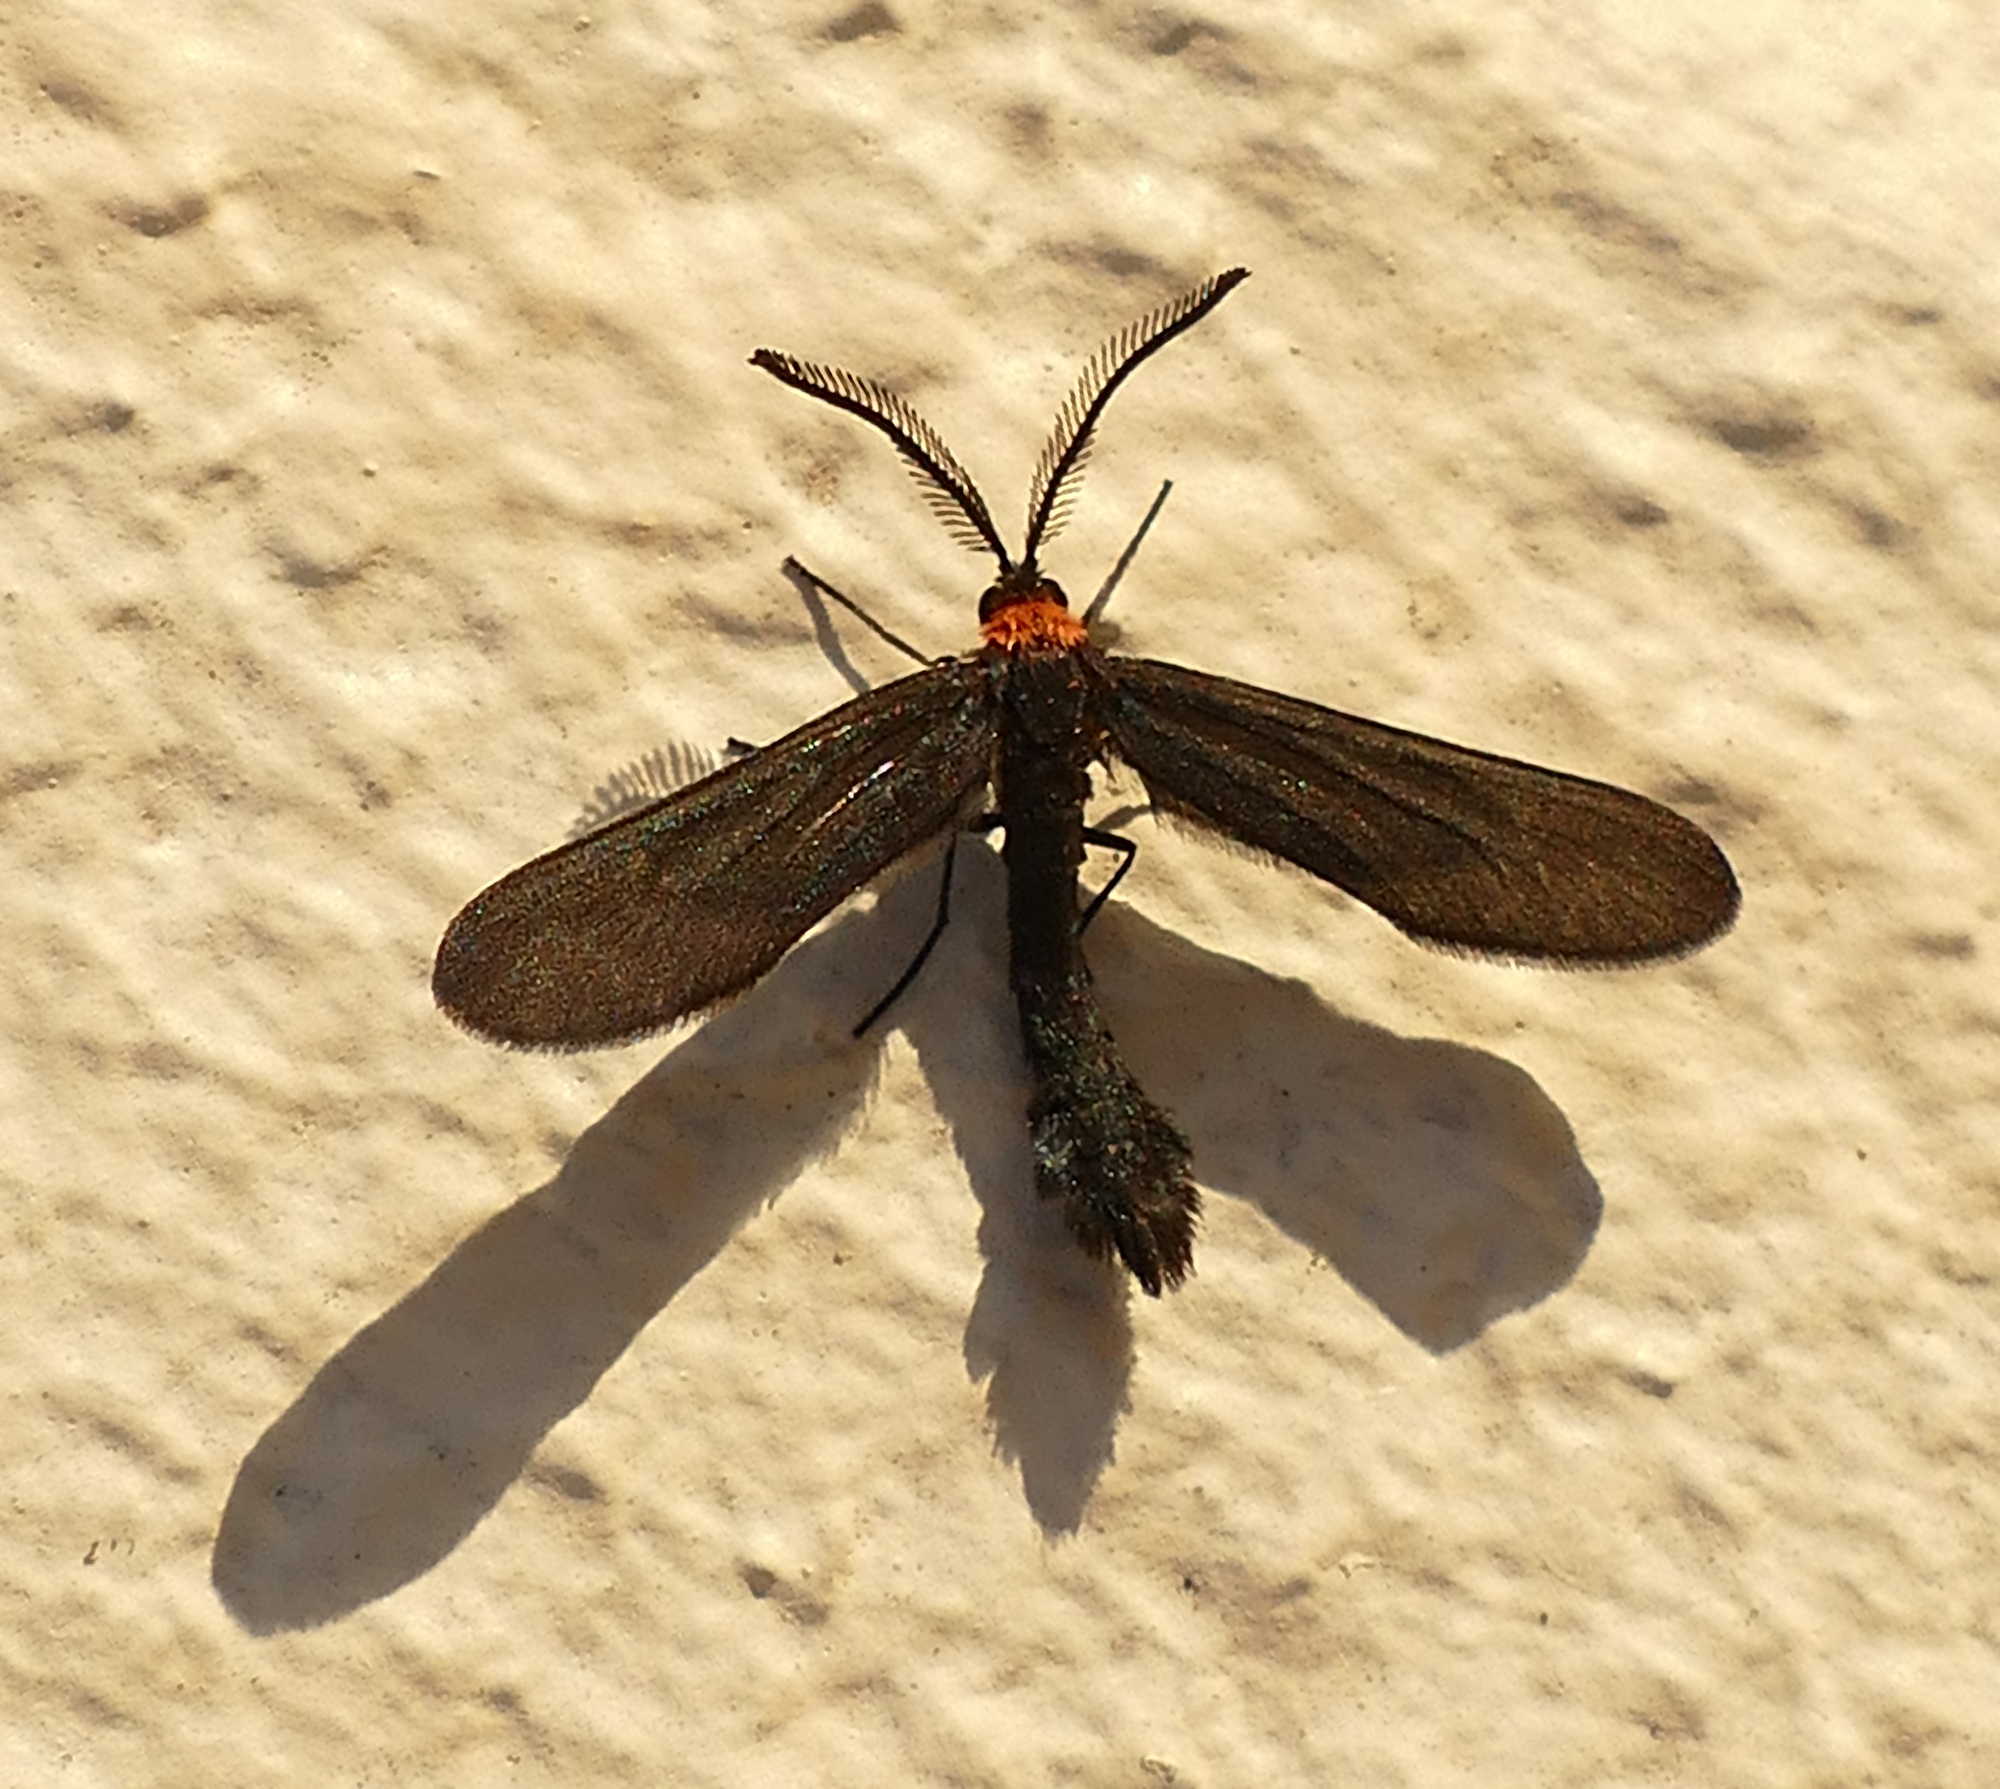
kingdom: Animalia
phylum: Arthropoda
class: Insecta
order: Lepidoptera
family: Zygaenidae
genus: Harrisina
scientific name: Harrisina americana
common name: Grapeleaf skeletonizer moth
